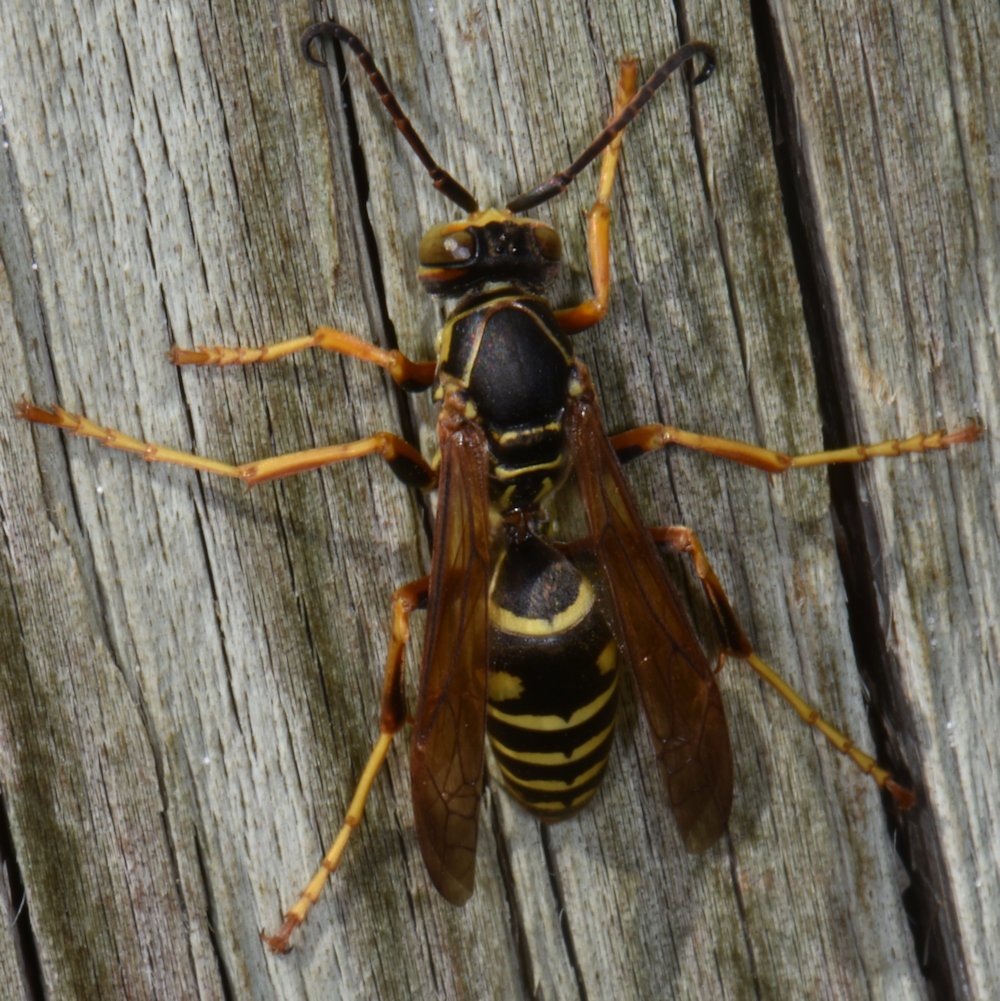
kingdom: Animalia
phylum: Arthropoda
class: Insecta
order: Hymenoptera
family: Eumenidae
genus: Polistes
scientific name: Polistes fuscatus
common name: Dark paper wasp
